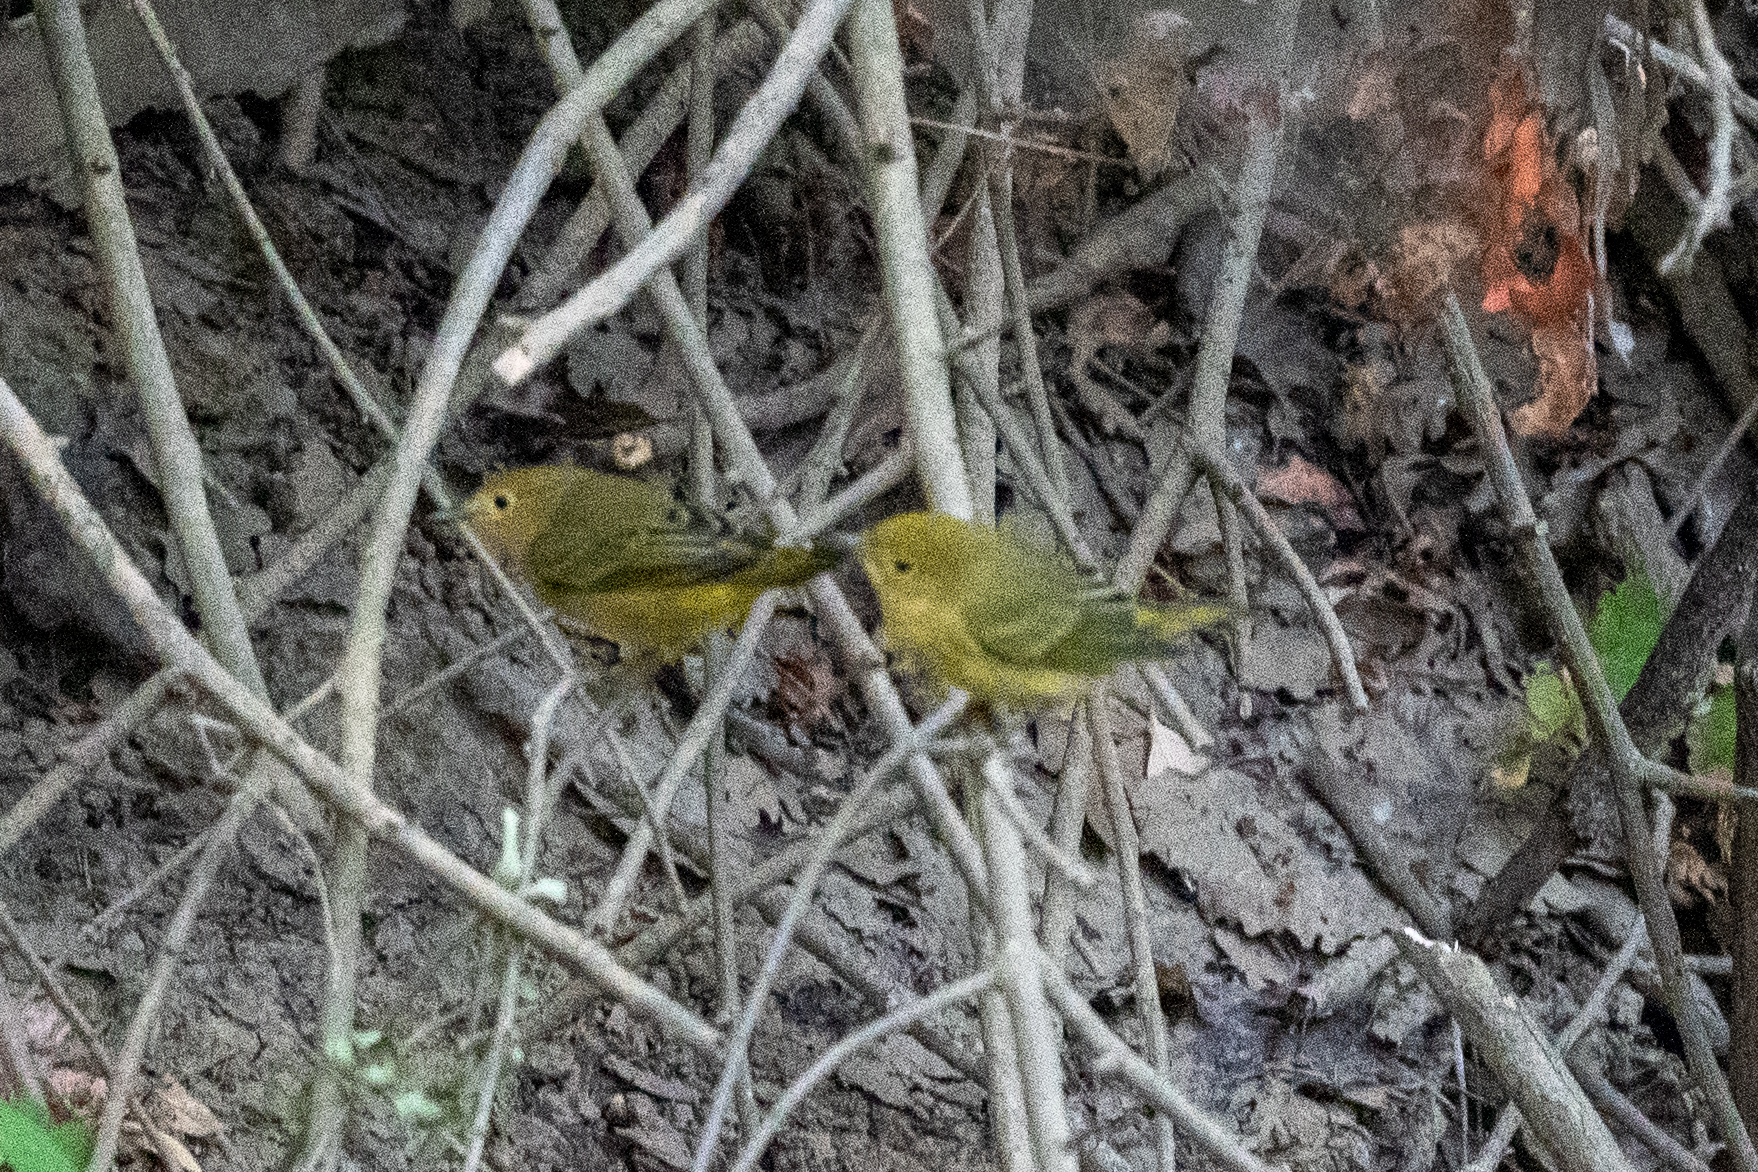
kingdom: Animalia
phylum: Chordata
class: Aves
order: Passeriformes
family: Parulidae
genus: Setophaga
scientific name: Setophaga petechia
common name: Yellow warbler
